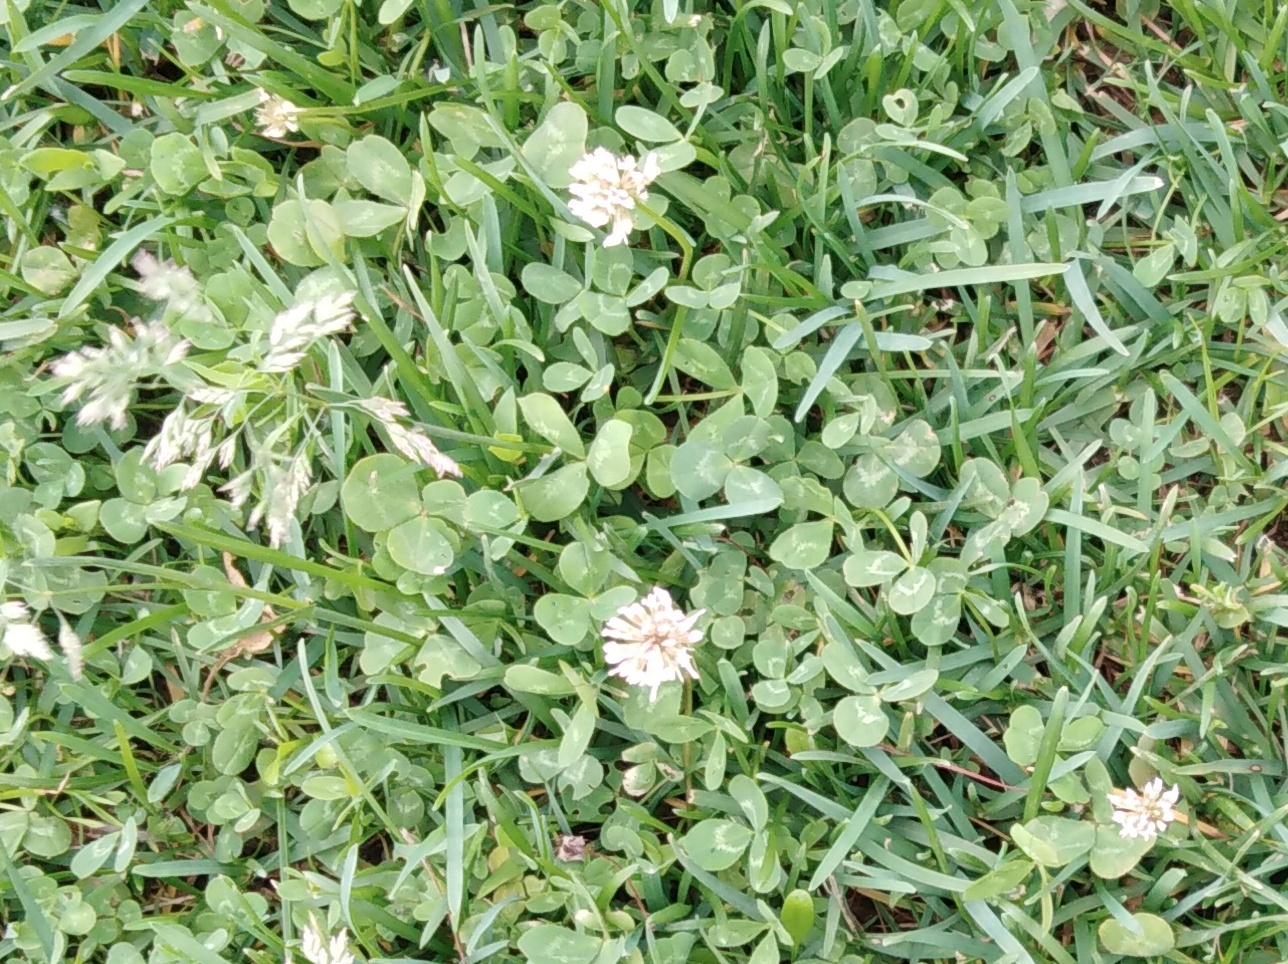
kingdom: Plantae
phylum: Tracheophyta
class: Magnoliopsida
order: Fabales
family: Fabaceae
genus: Trifolium
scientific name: Trifolium repens
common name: White clover
